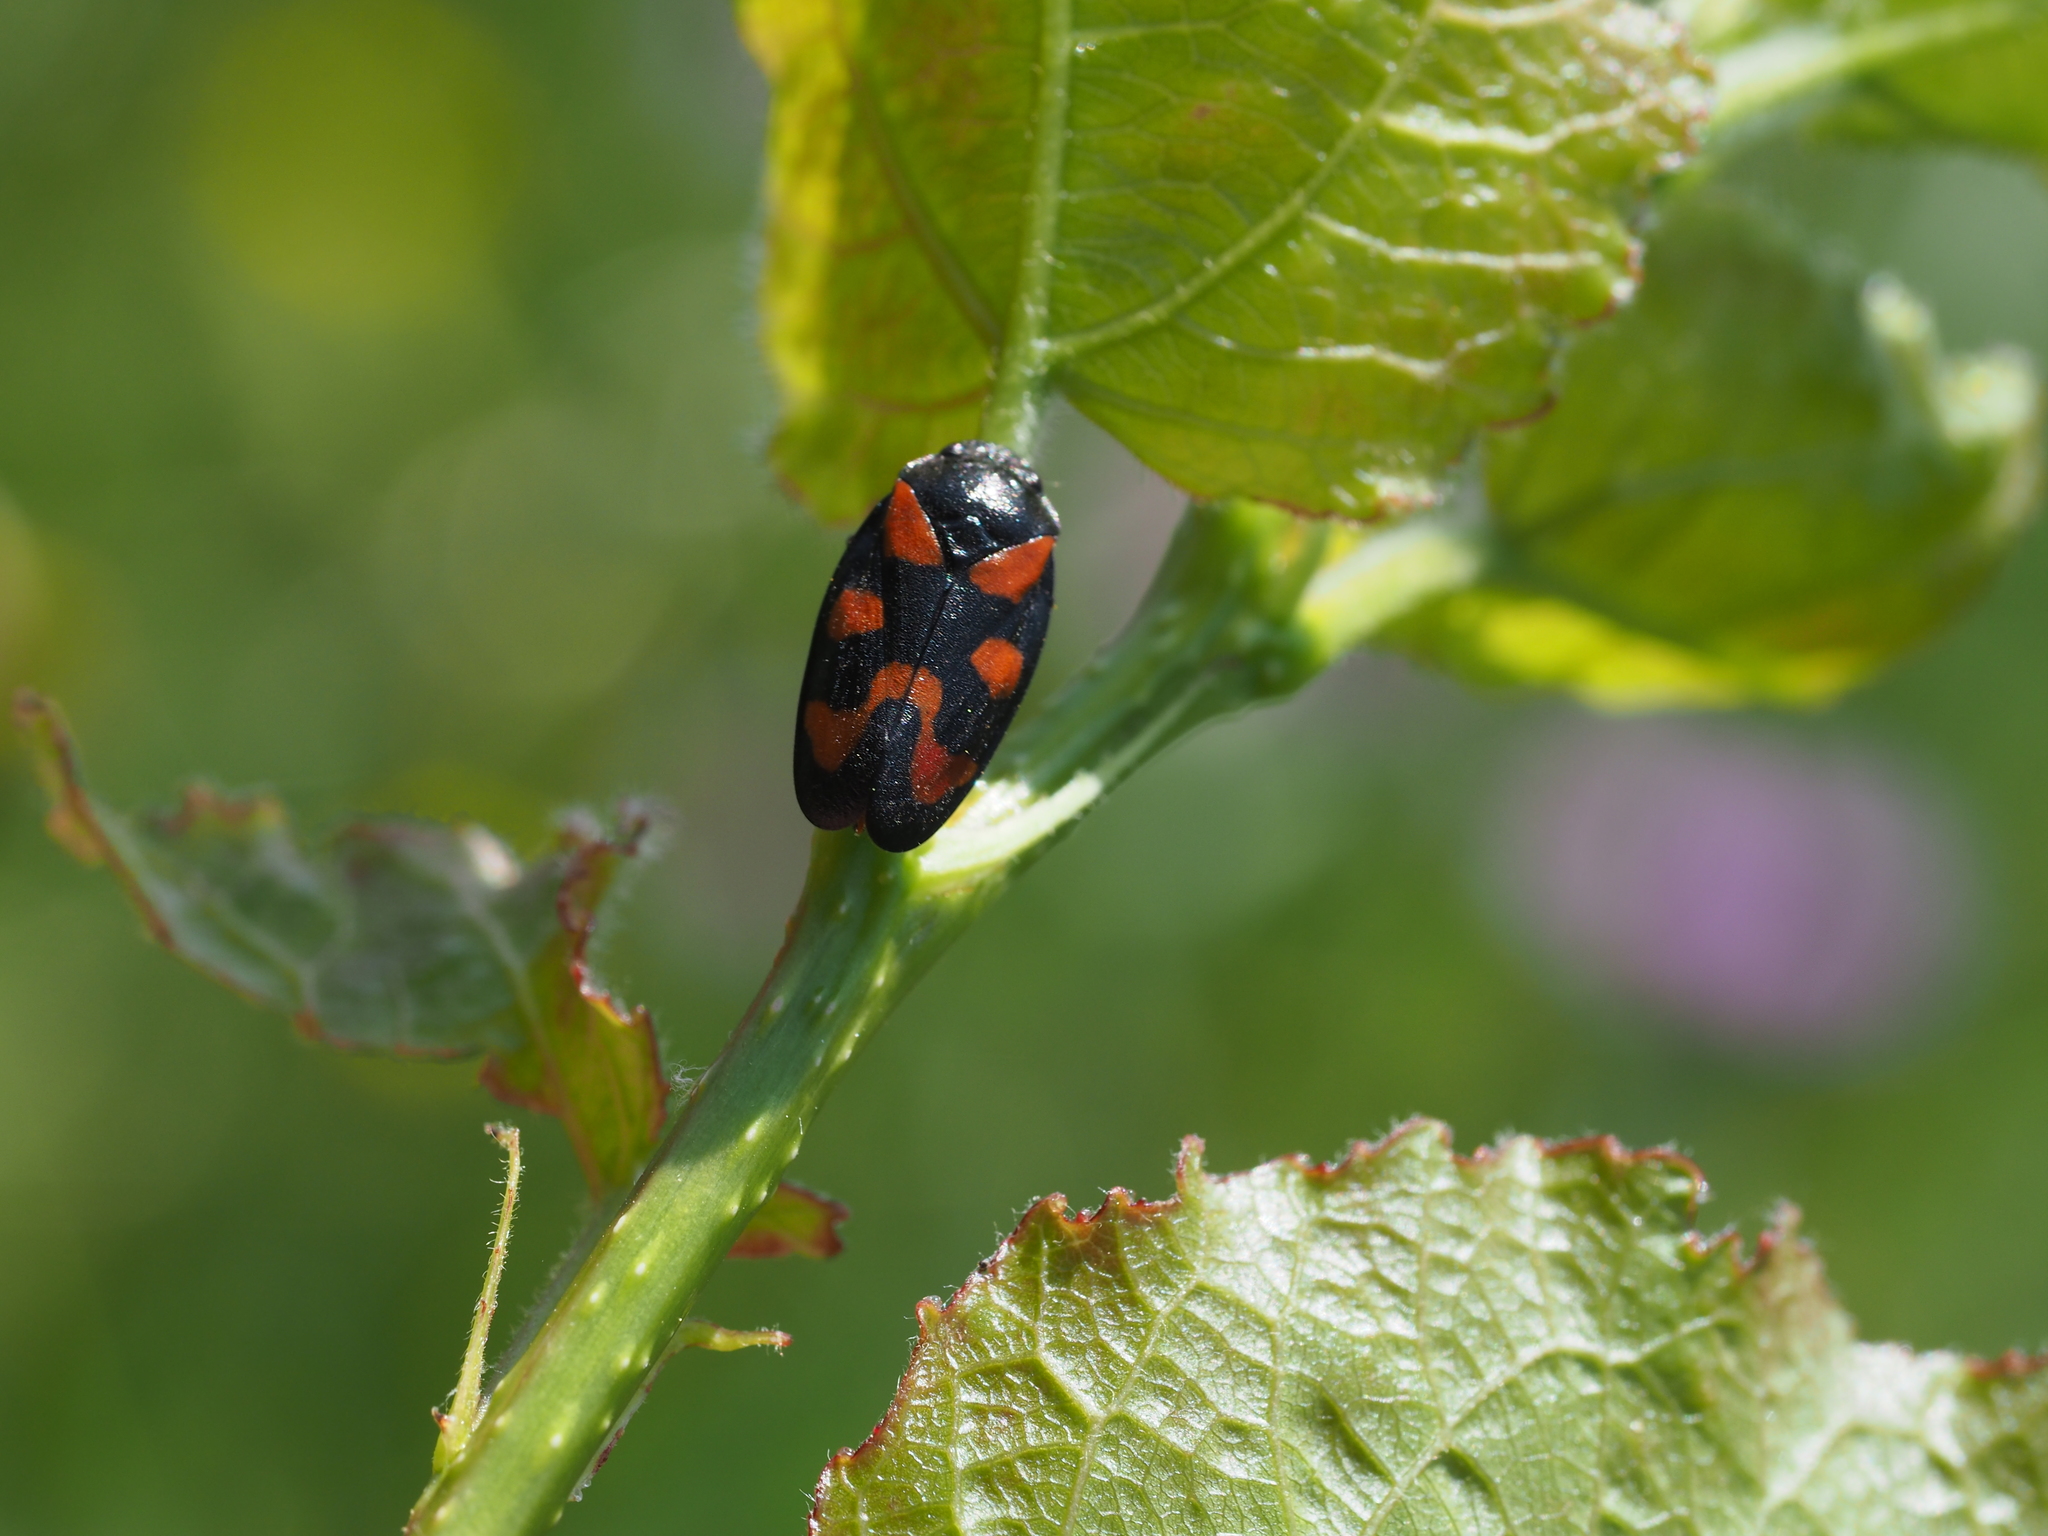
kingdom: Animalia
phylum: Arthropoda
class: Insecta
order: Hemiptera
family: Cercopidae
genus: Cercopis
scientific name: Cercopis vulnerata
